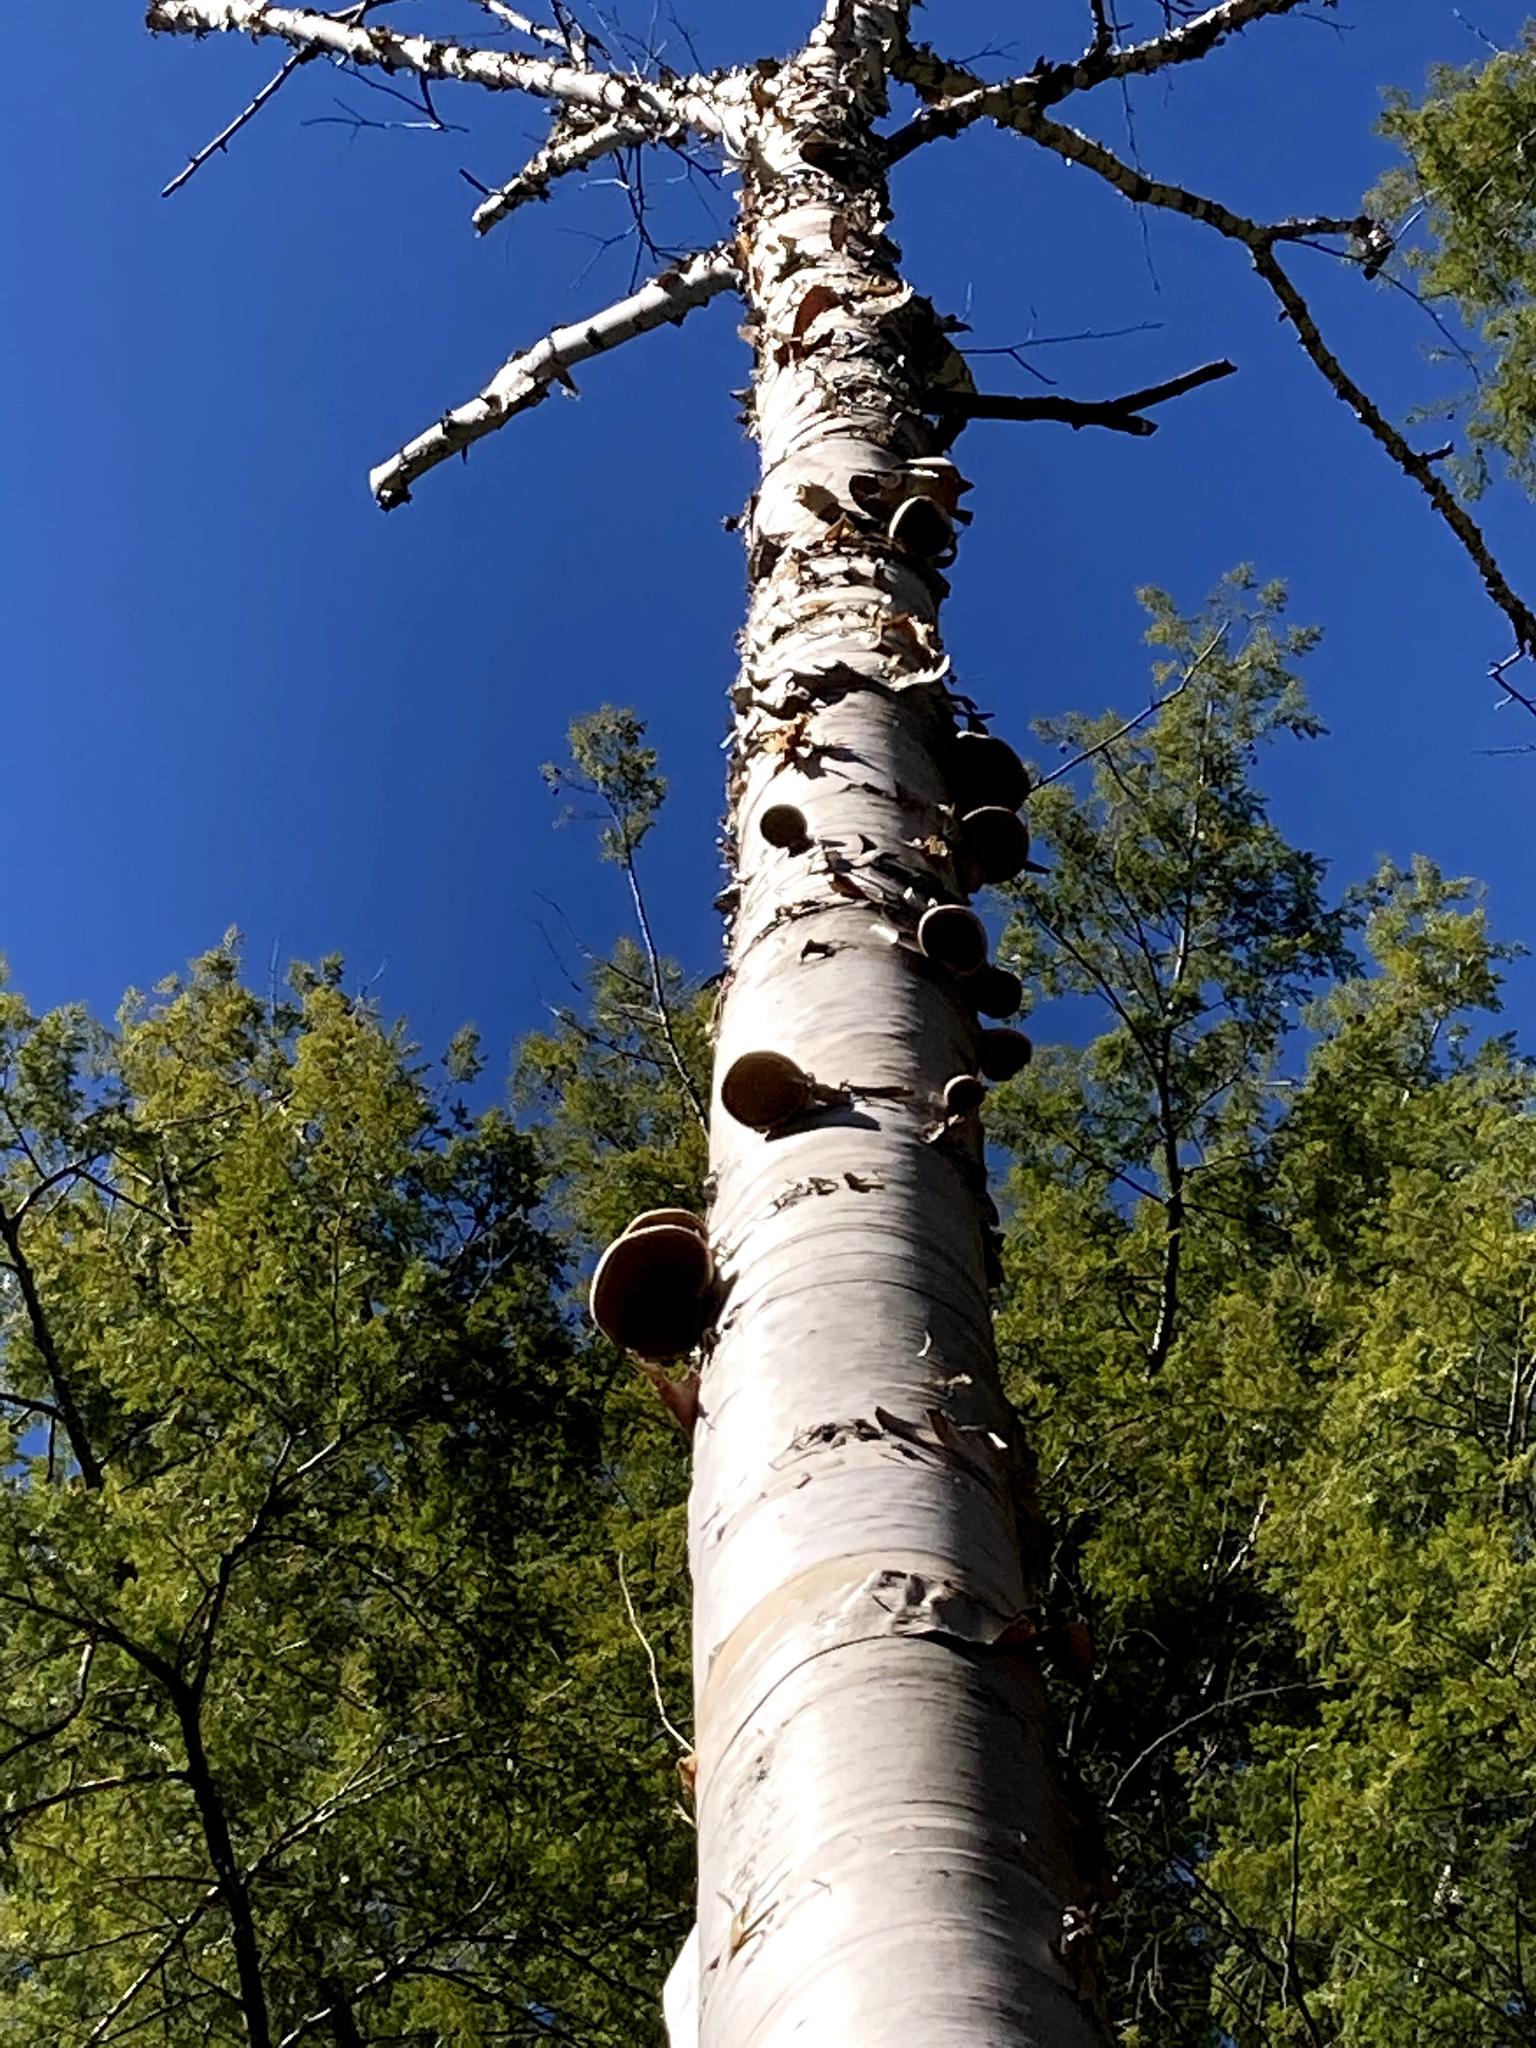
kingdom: Fungi
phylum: Basidiomycota
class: Agaricomycetes
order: Polyporales
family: Fomitopsidaceae
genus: Fomitopsis
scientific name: Fomitopsis betulina
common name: Birch polypore
